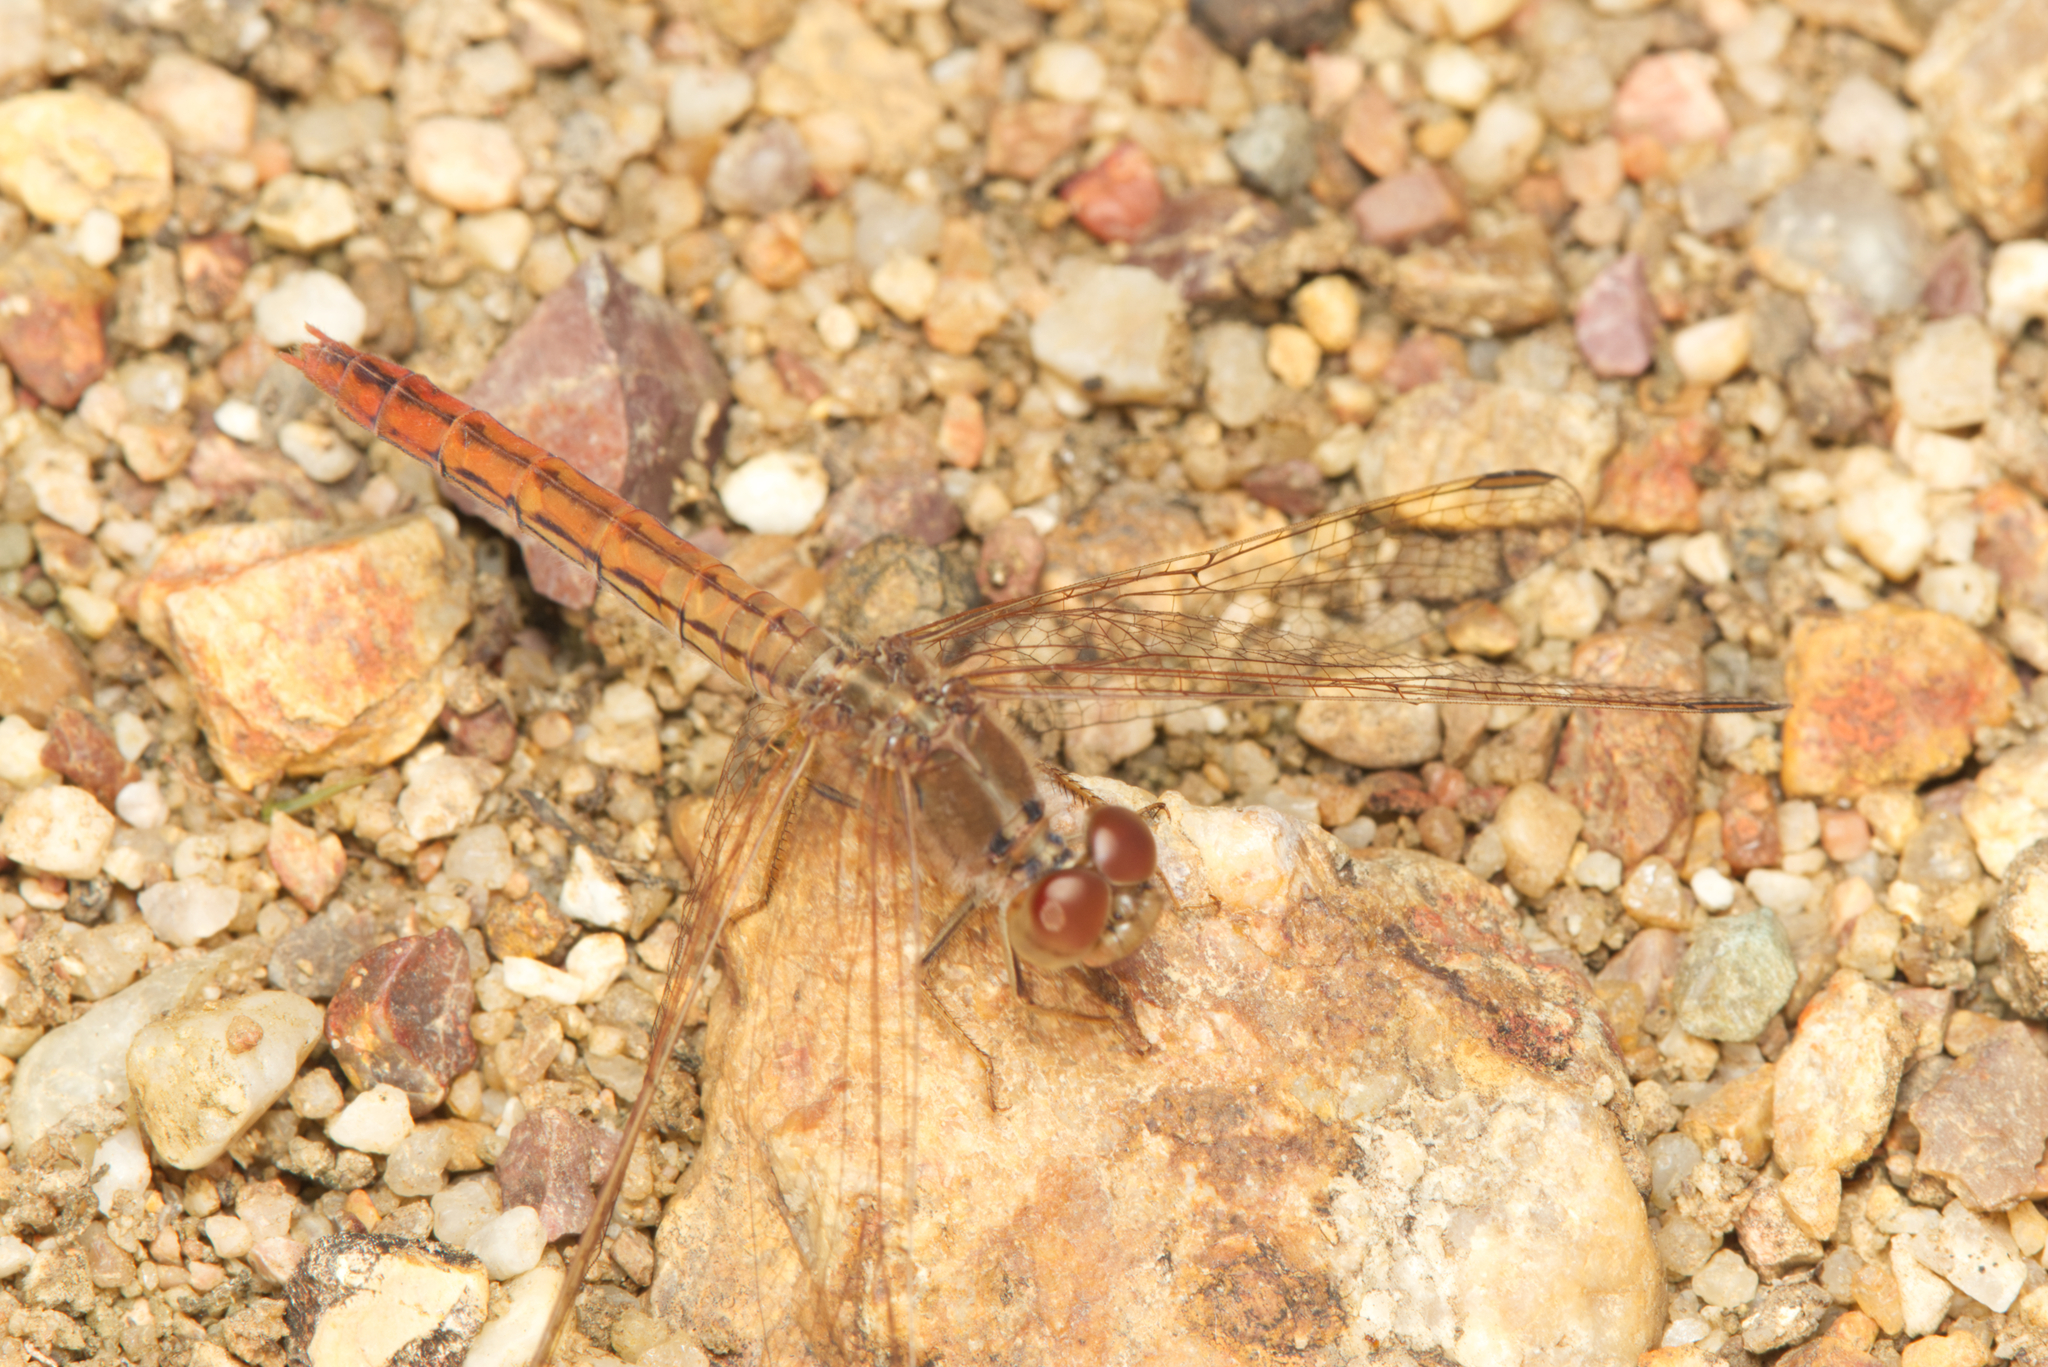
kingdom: Animalia
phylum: Arthropoda
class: Insecta
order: Odonata
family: Libellulidae
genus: Diplacodes
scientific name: Diplacodes haematodes
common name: Scarlet percher
